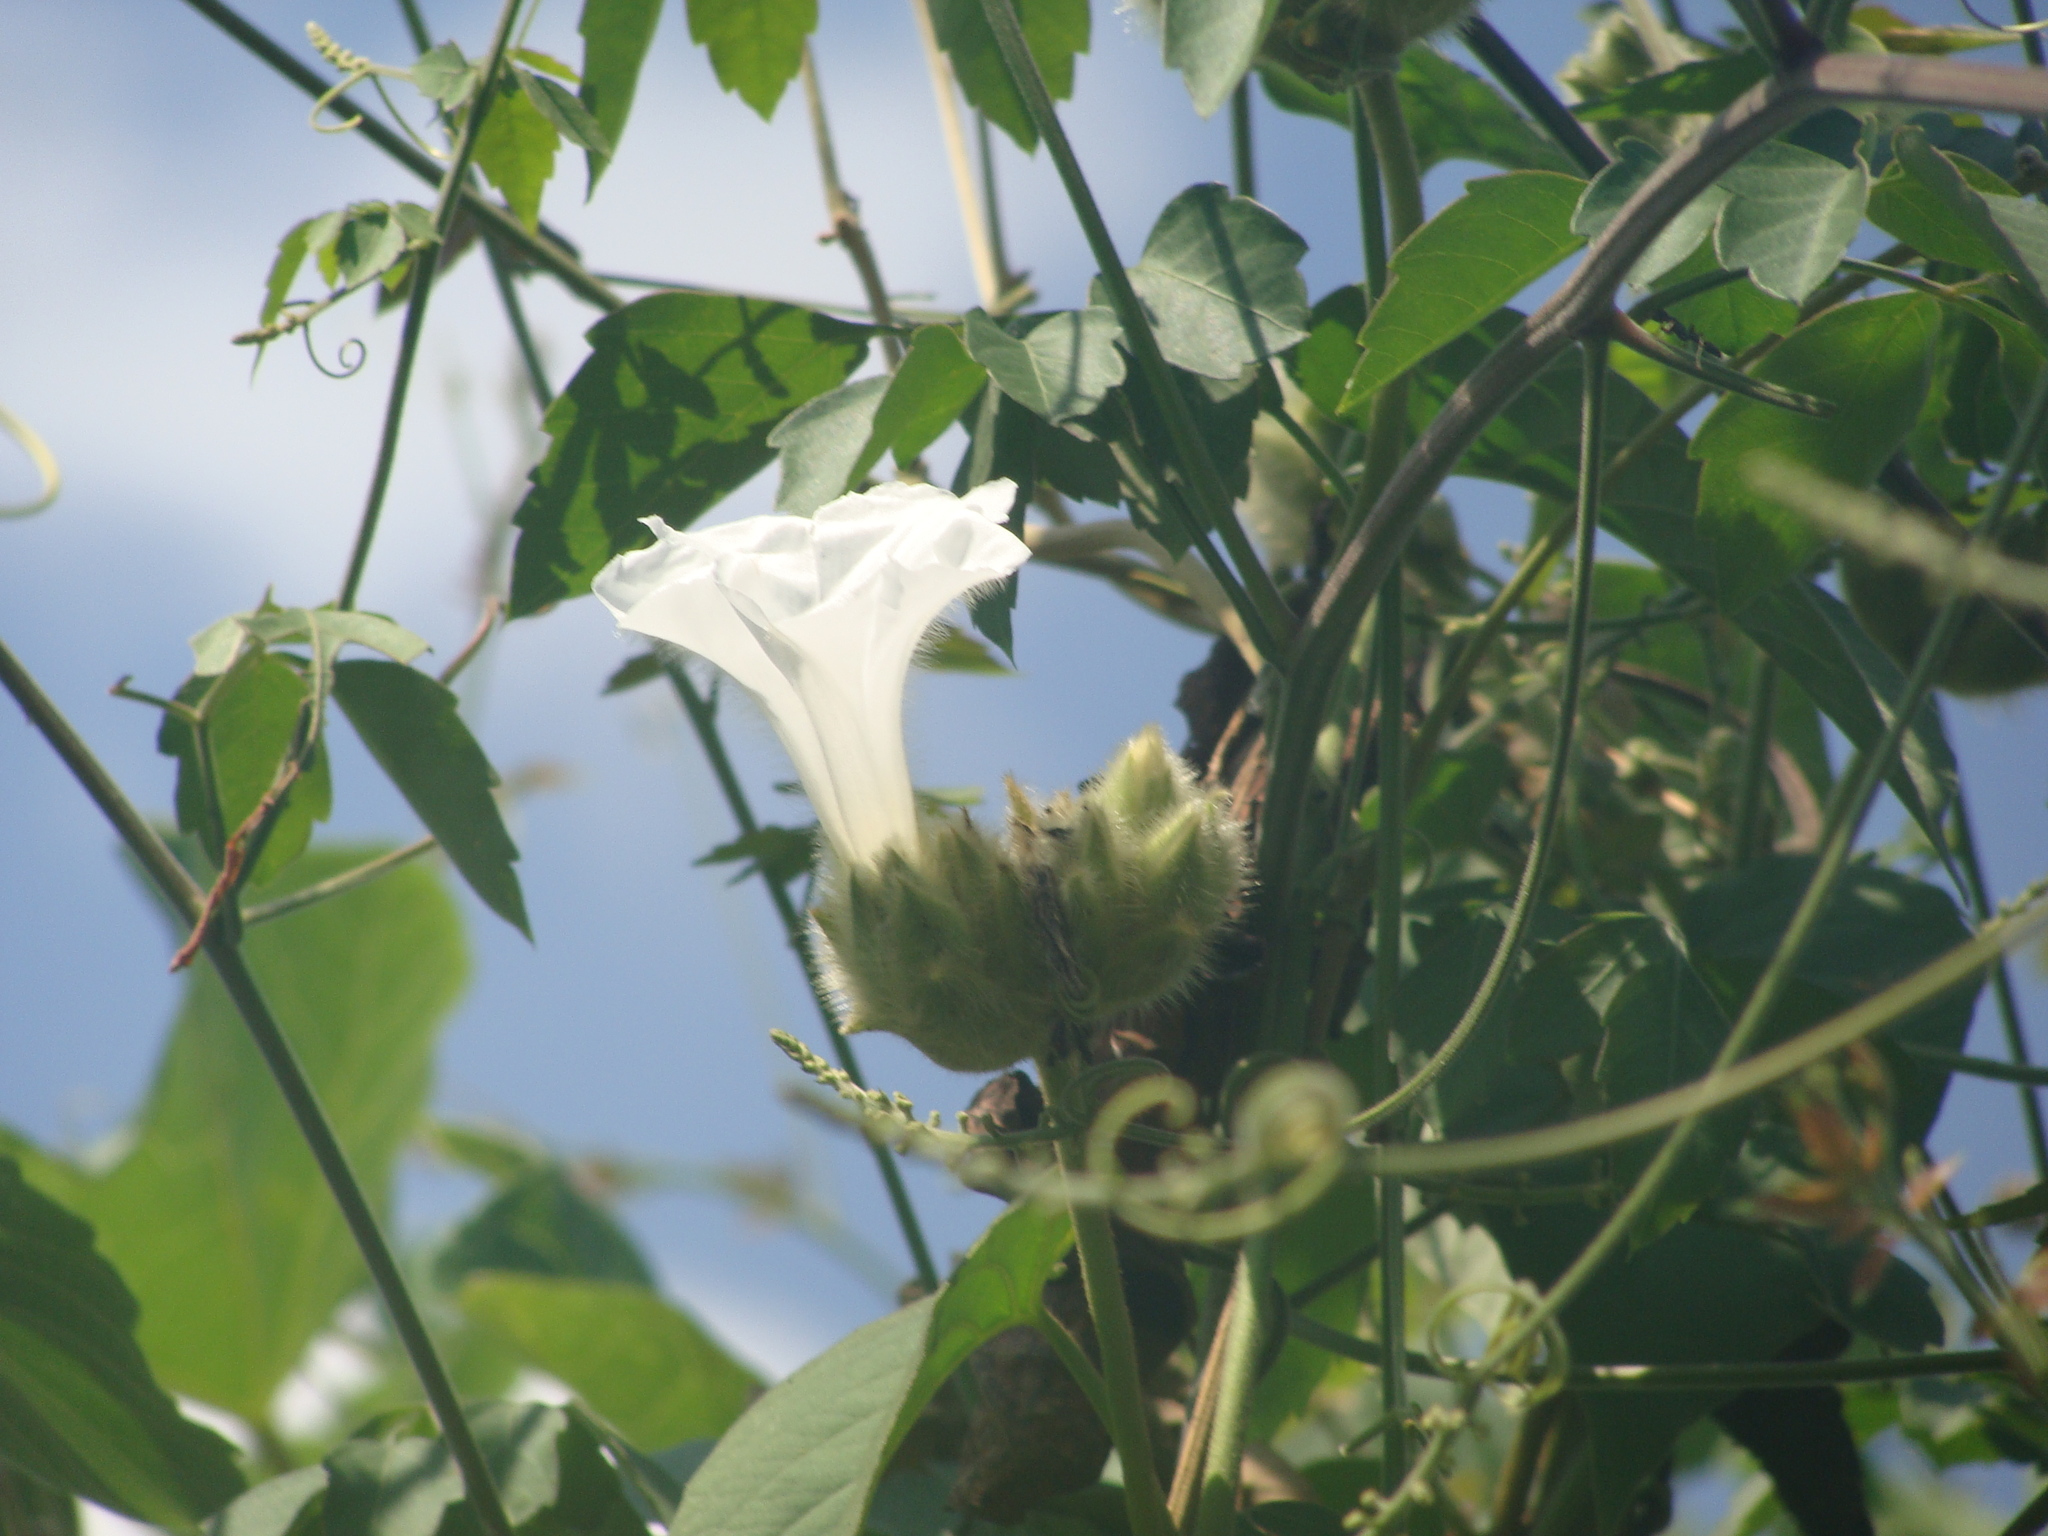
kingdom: Plantae
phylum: Tracheophyta
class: Magnoliopsida
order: Solanales
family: Convolvulaceae
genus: Odonellia
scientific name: Odonellia hirtiflora
